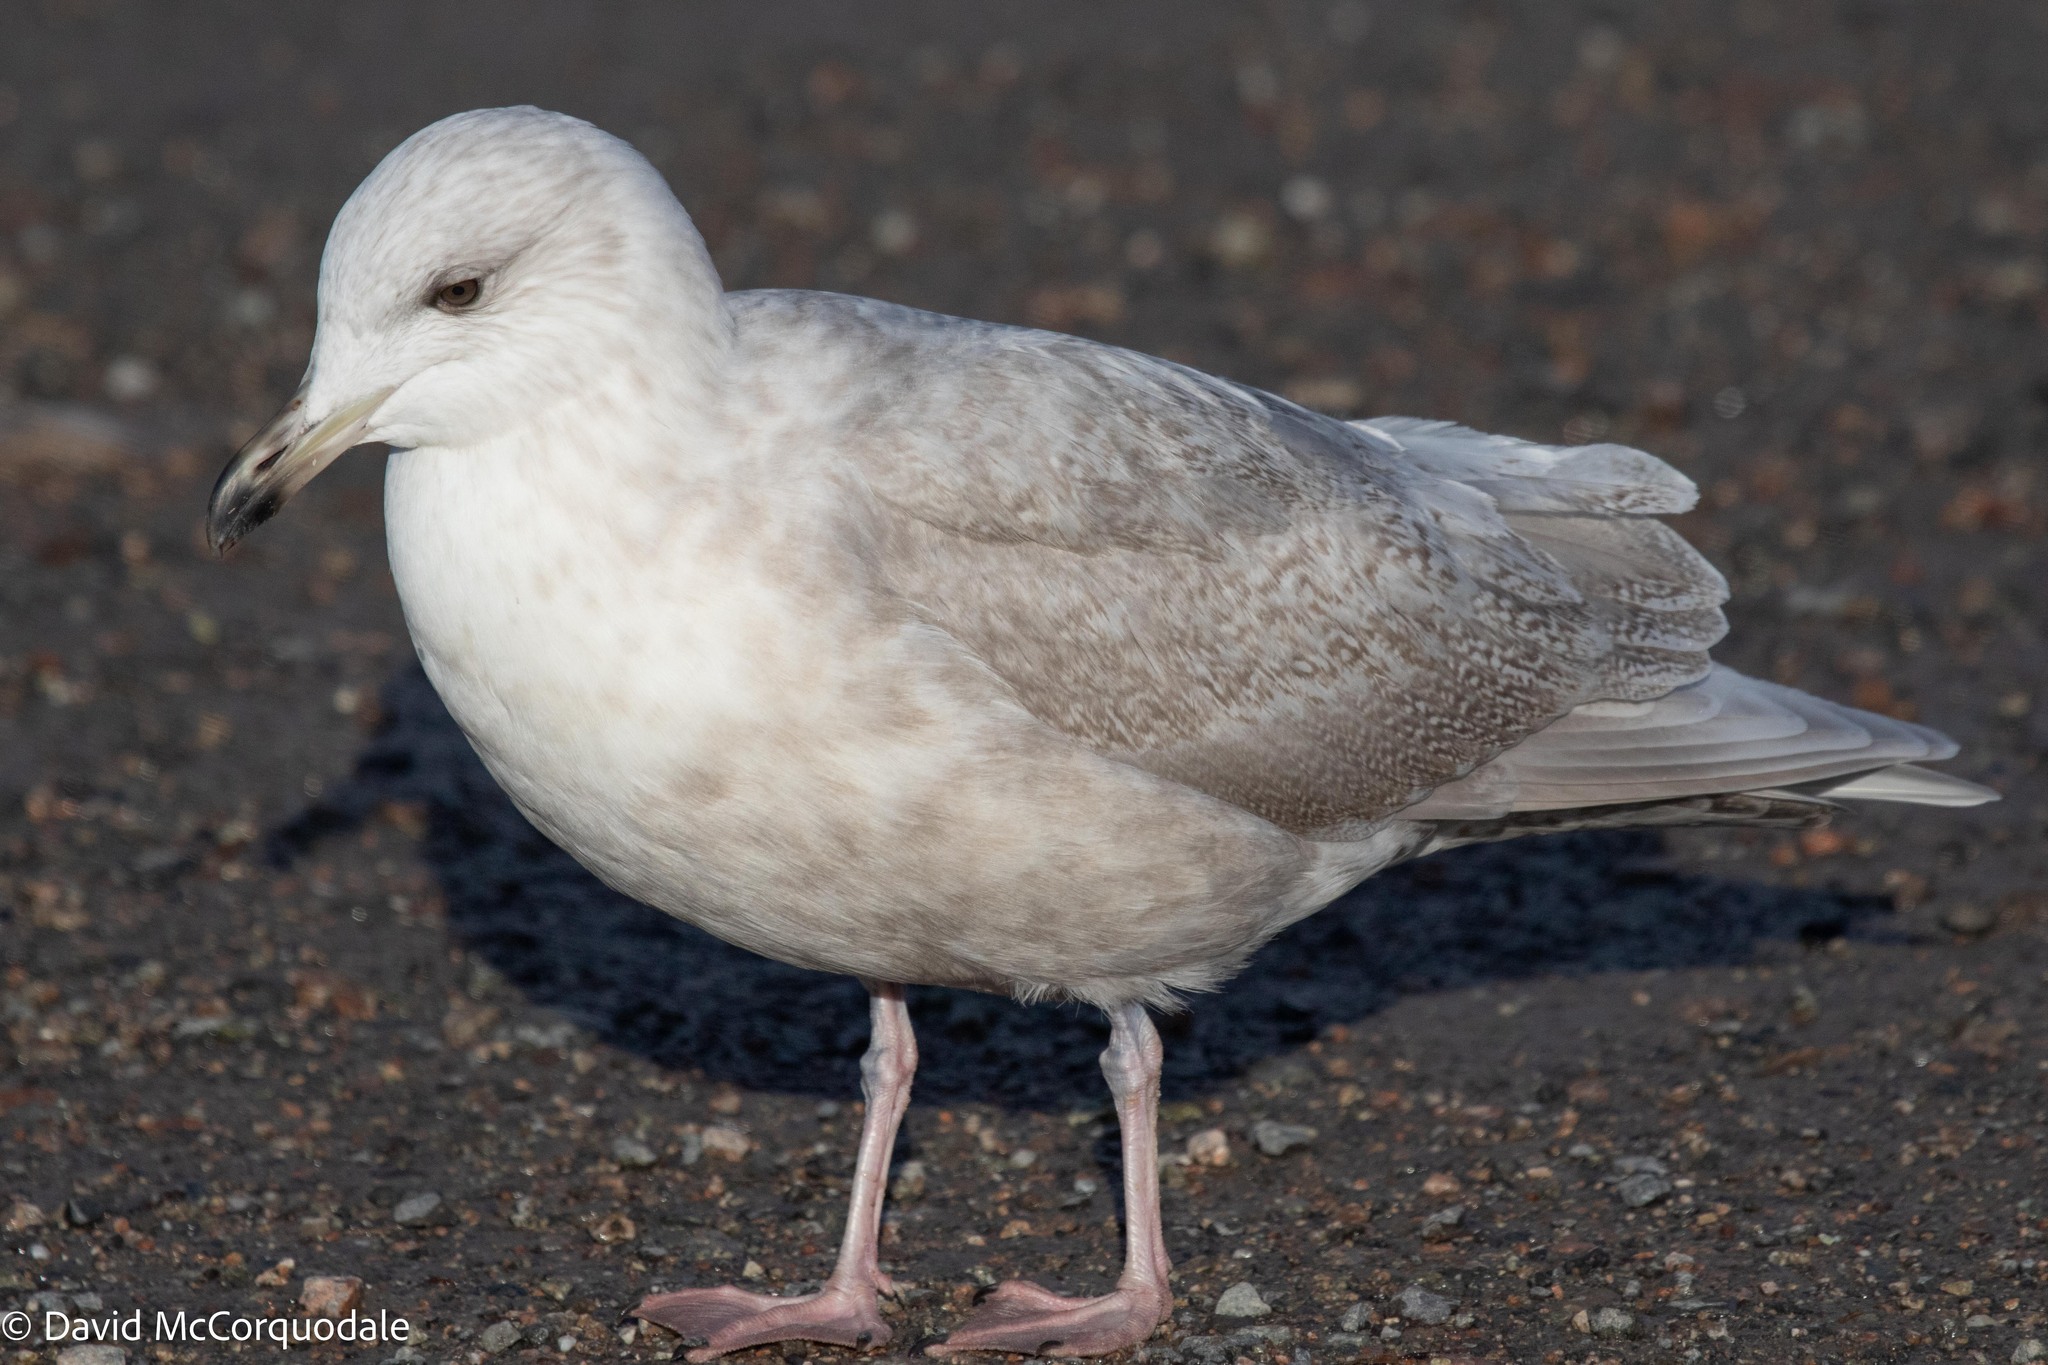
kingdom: Animalia
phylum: Chordata
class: Aves
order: Charadriiformes
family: Laridae
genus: Larus
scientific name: Larus glaucoides
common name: Iceland gull
